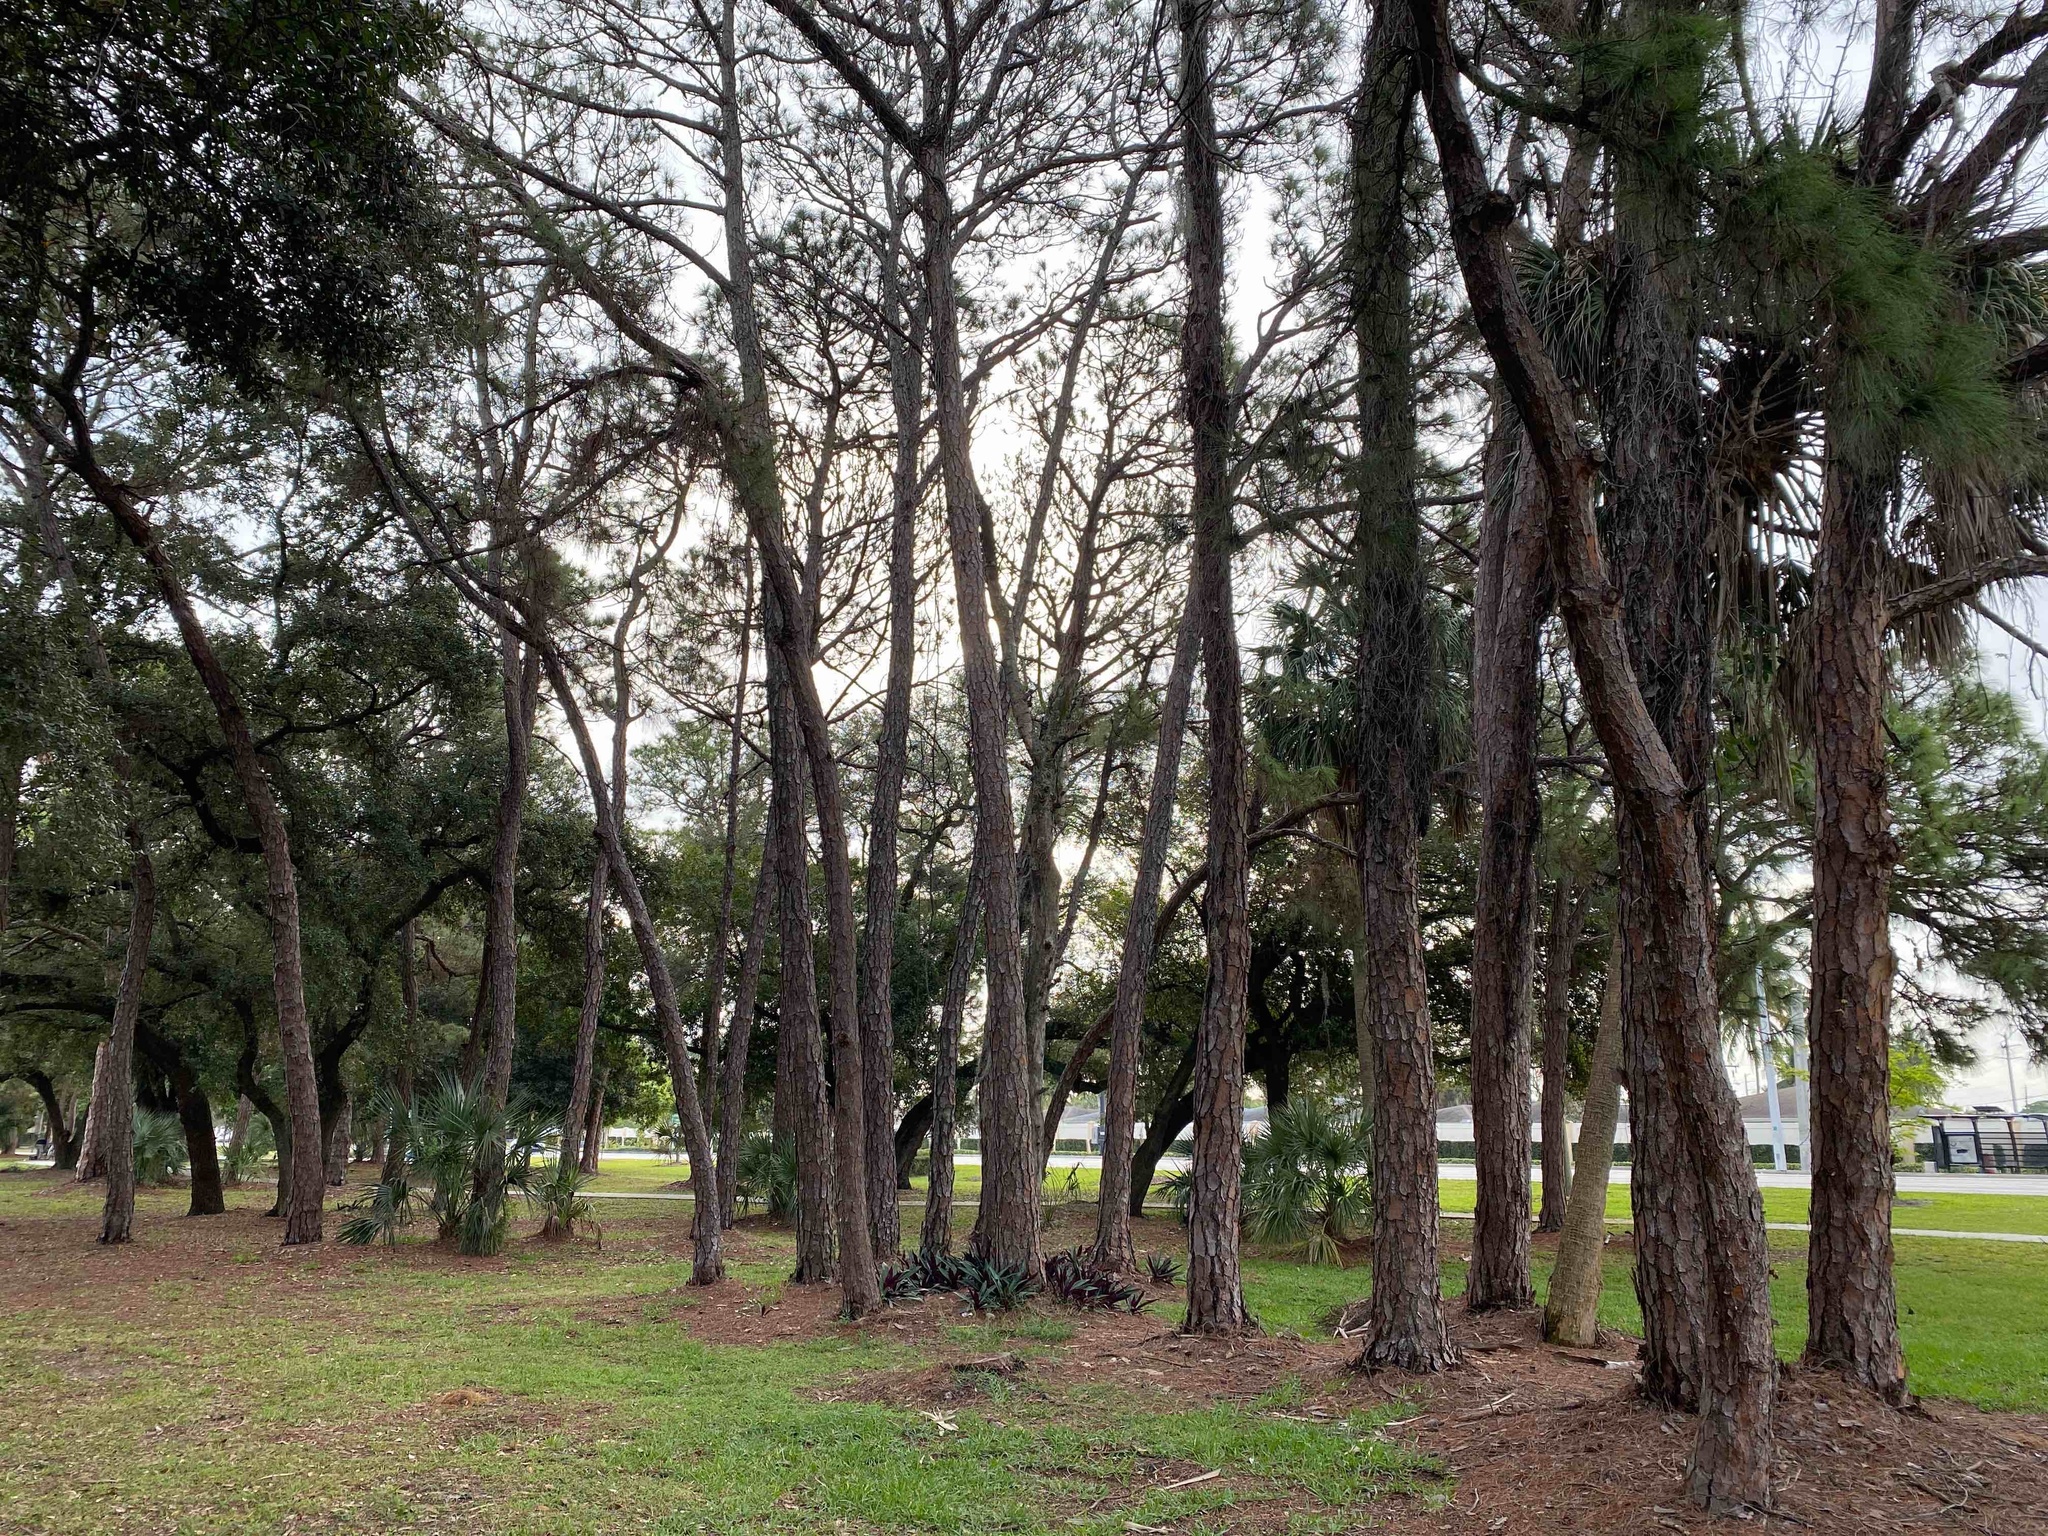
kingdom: Plantae
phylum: Tracheophyta
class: Pinopsida
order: Pinales
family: Pinaceae
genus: Pinus
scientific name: Pinus elliottii
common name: Slash pine
